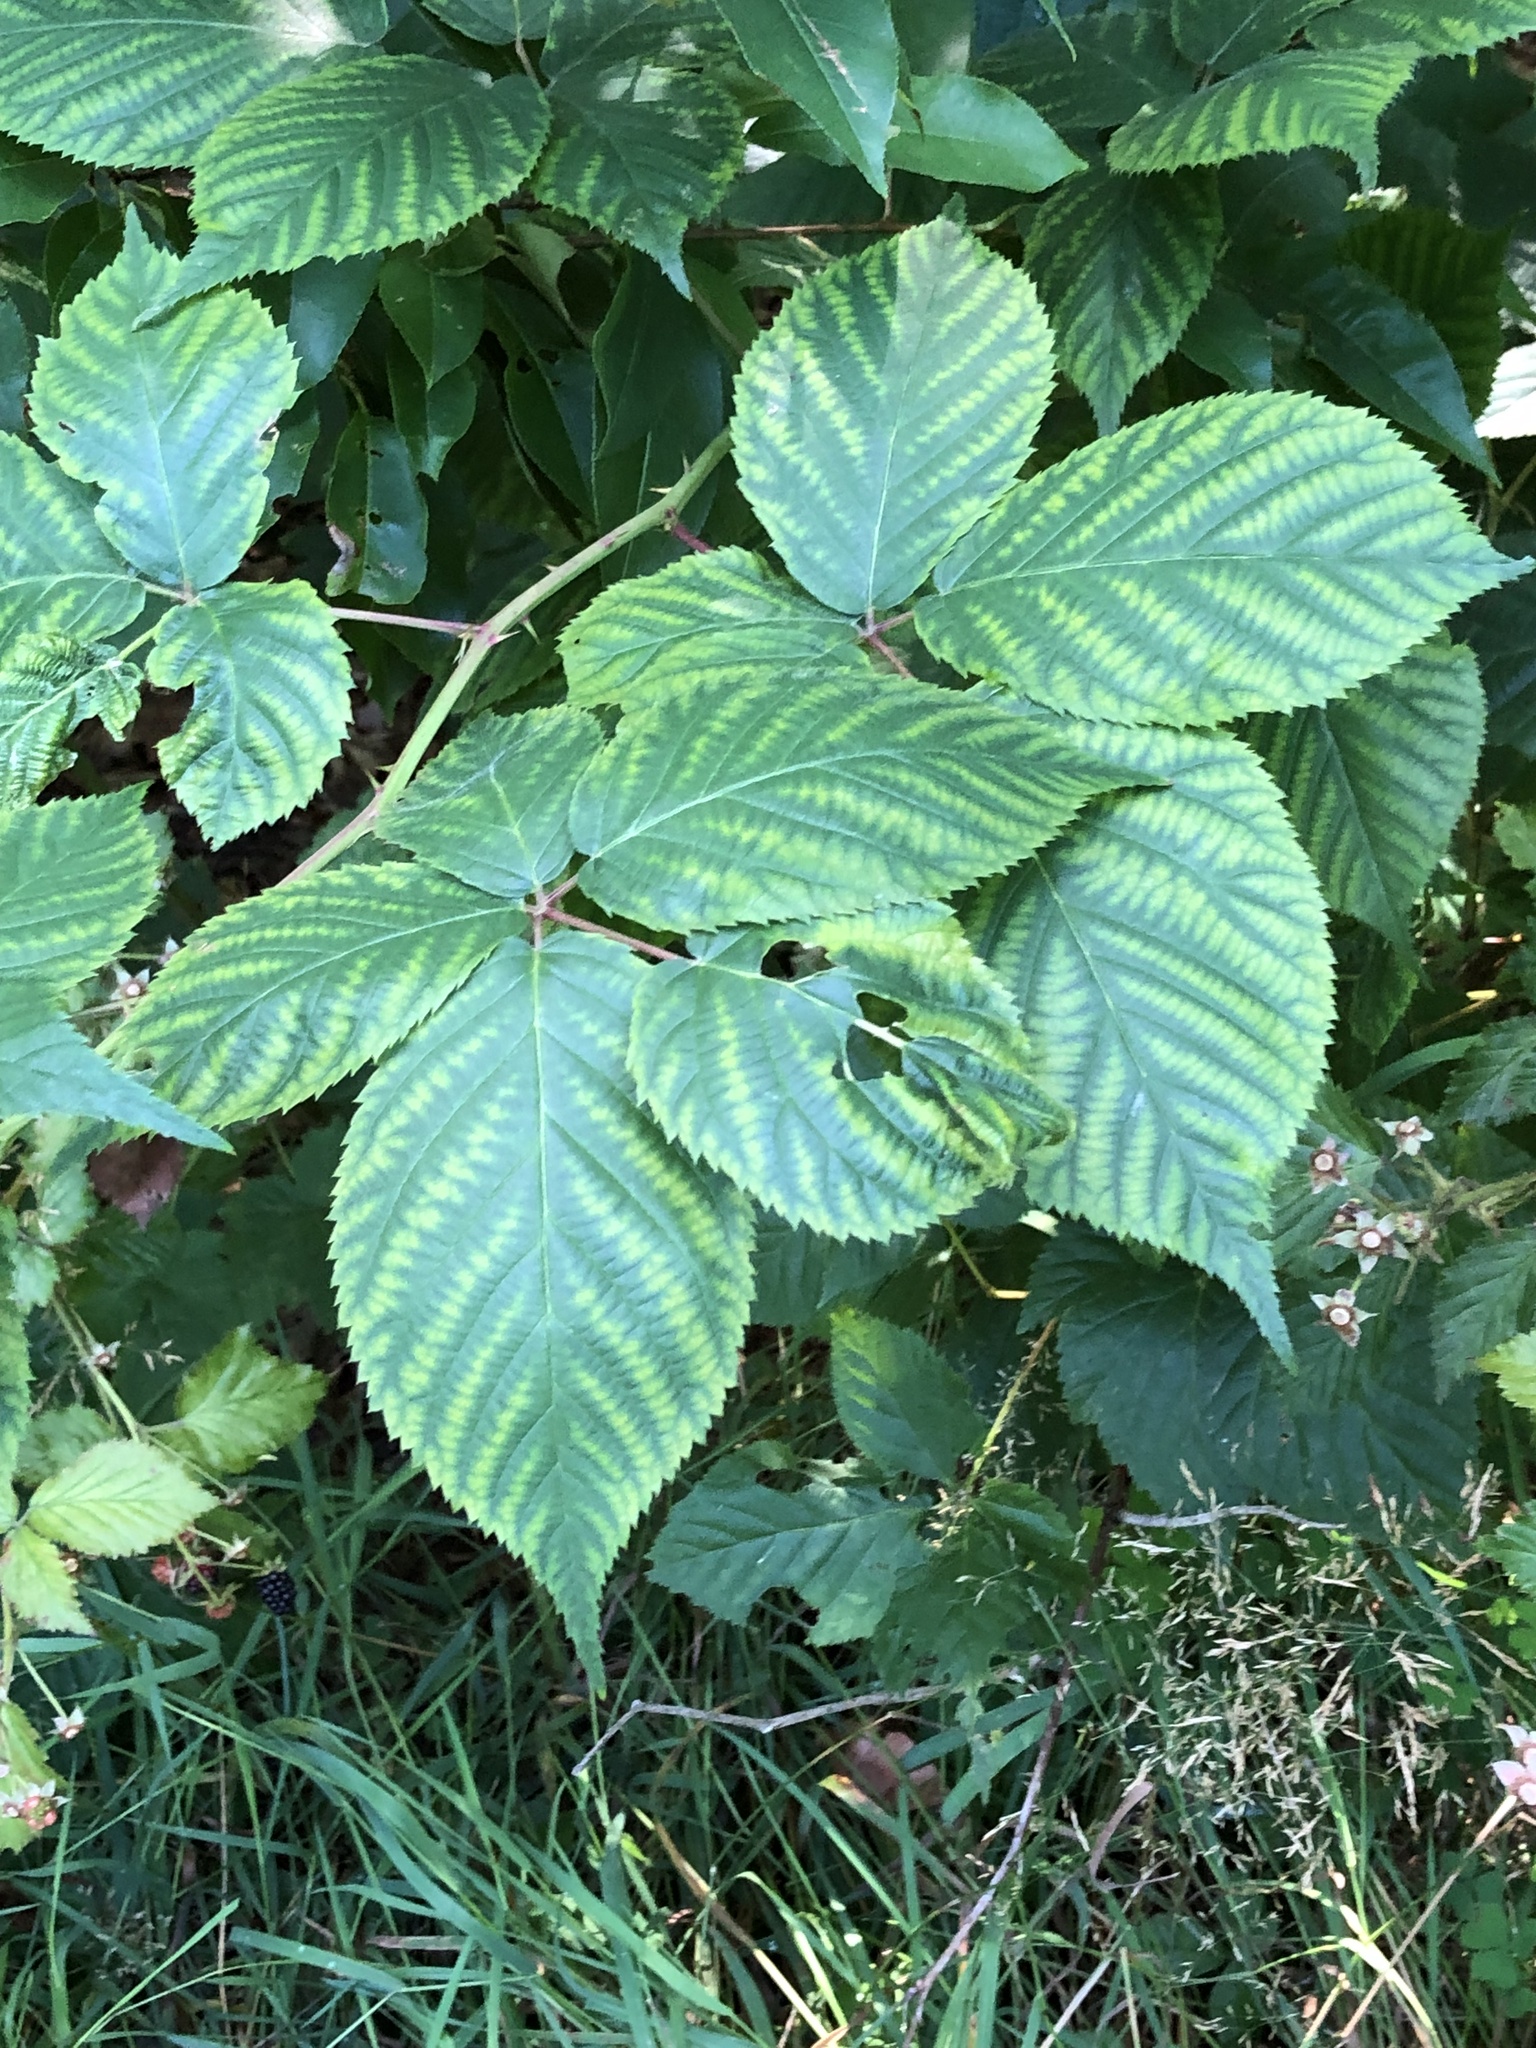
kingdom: Plantae
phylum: Tracheophyta
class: Magnoliopsida
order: Rosales
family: Rosaceae
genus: Rubus
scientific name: Rubus allegheniensis
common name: Allegheny blackberry
